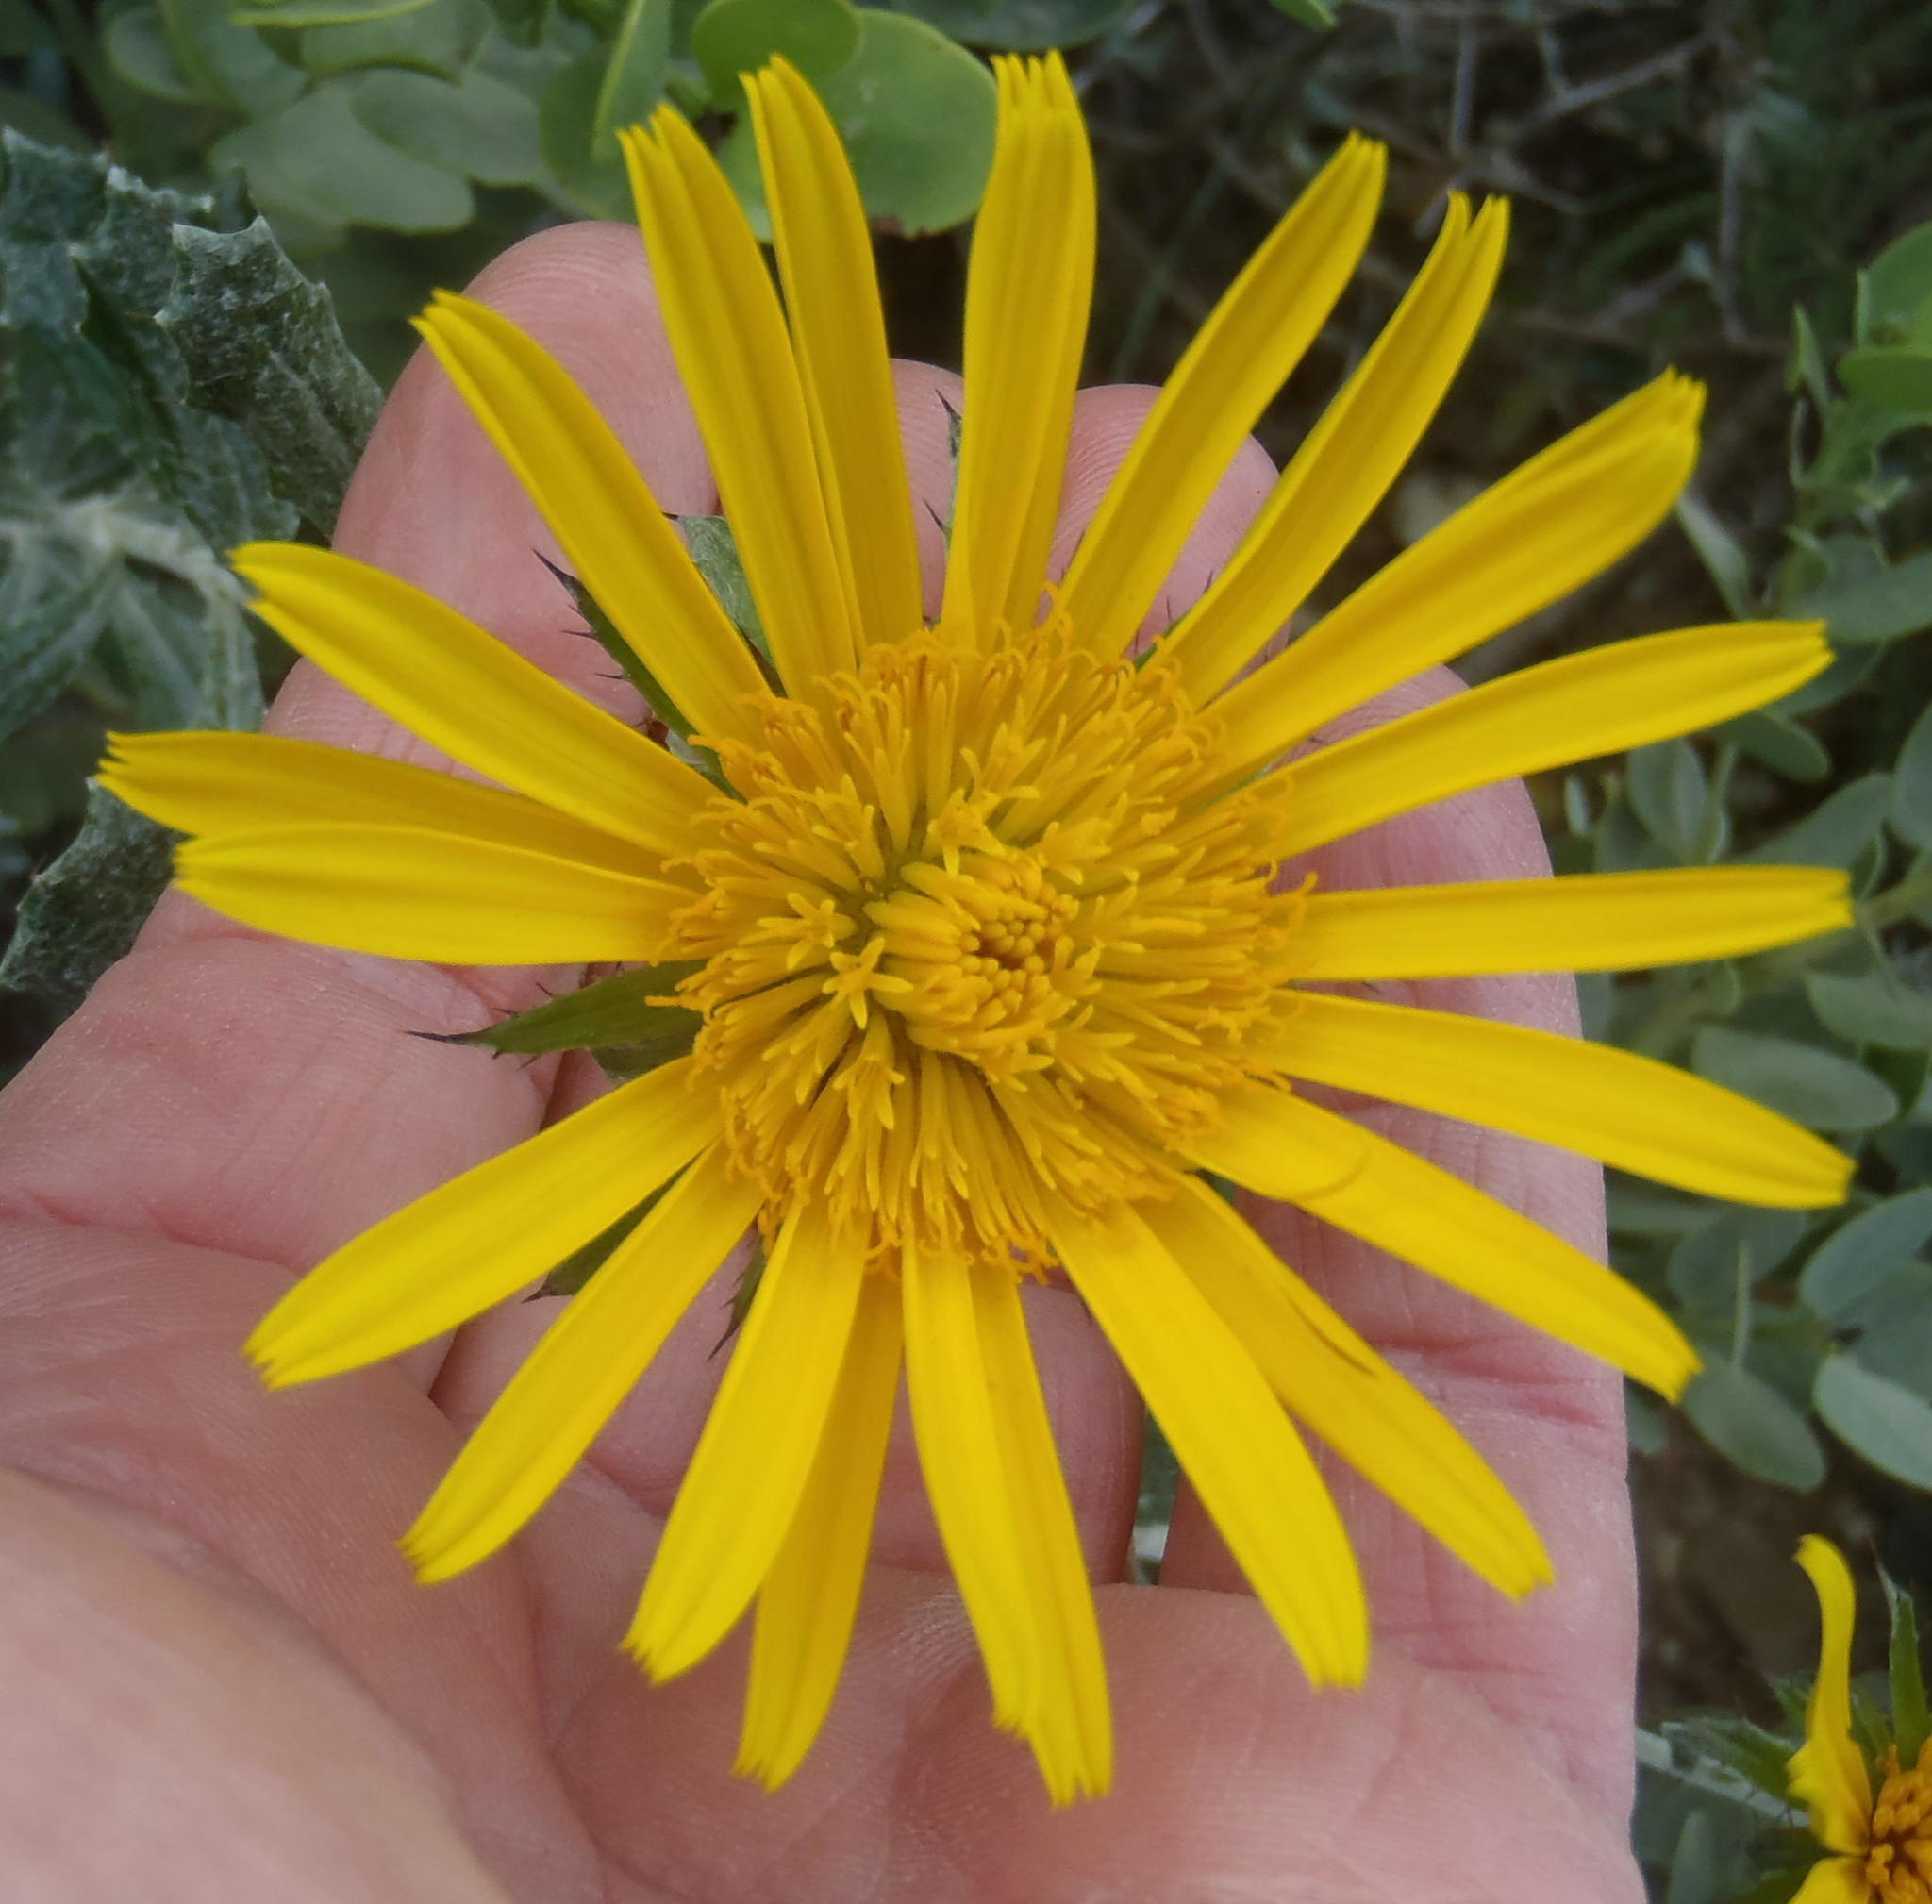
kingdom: Plantae
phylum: Tracheophyta
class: Magnoliopsida
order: Asterales
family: Asteraceae
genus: Berkheya
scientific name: Berkheya coriacea
